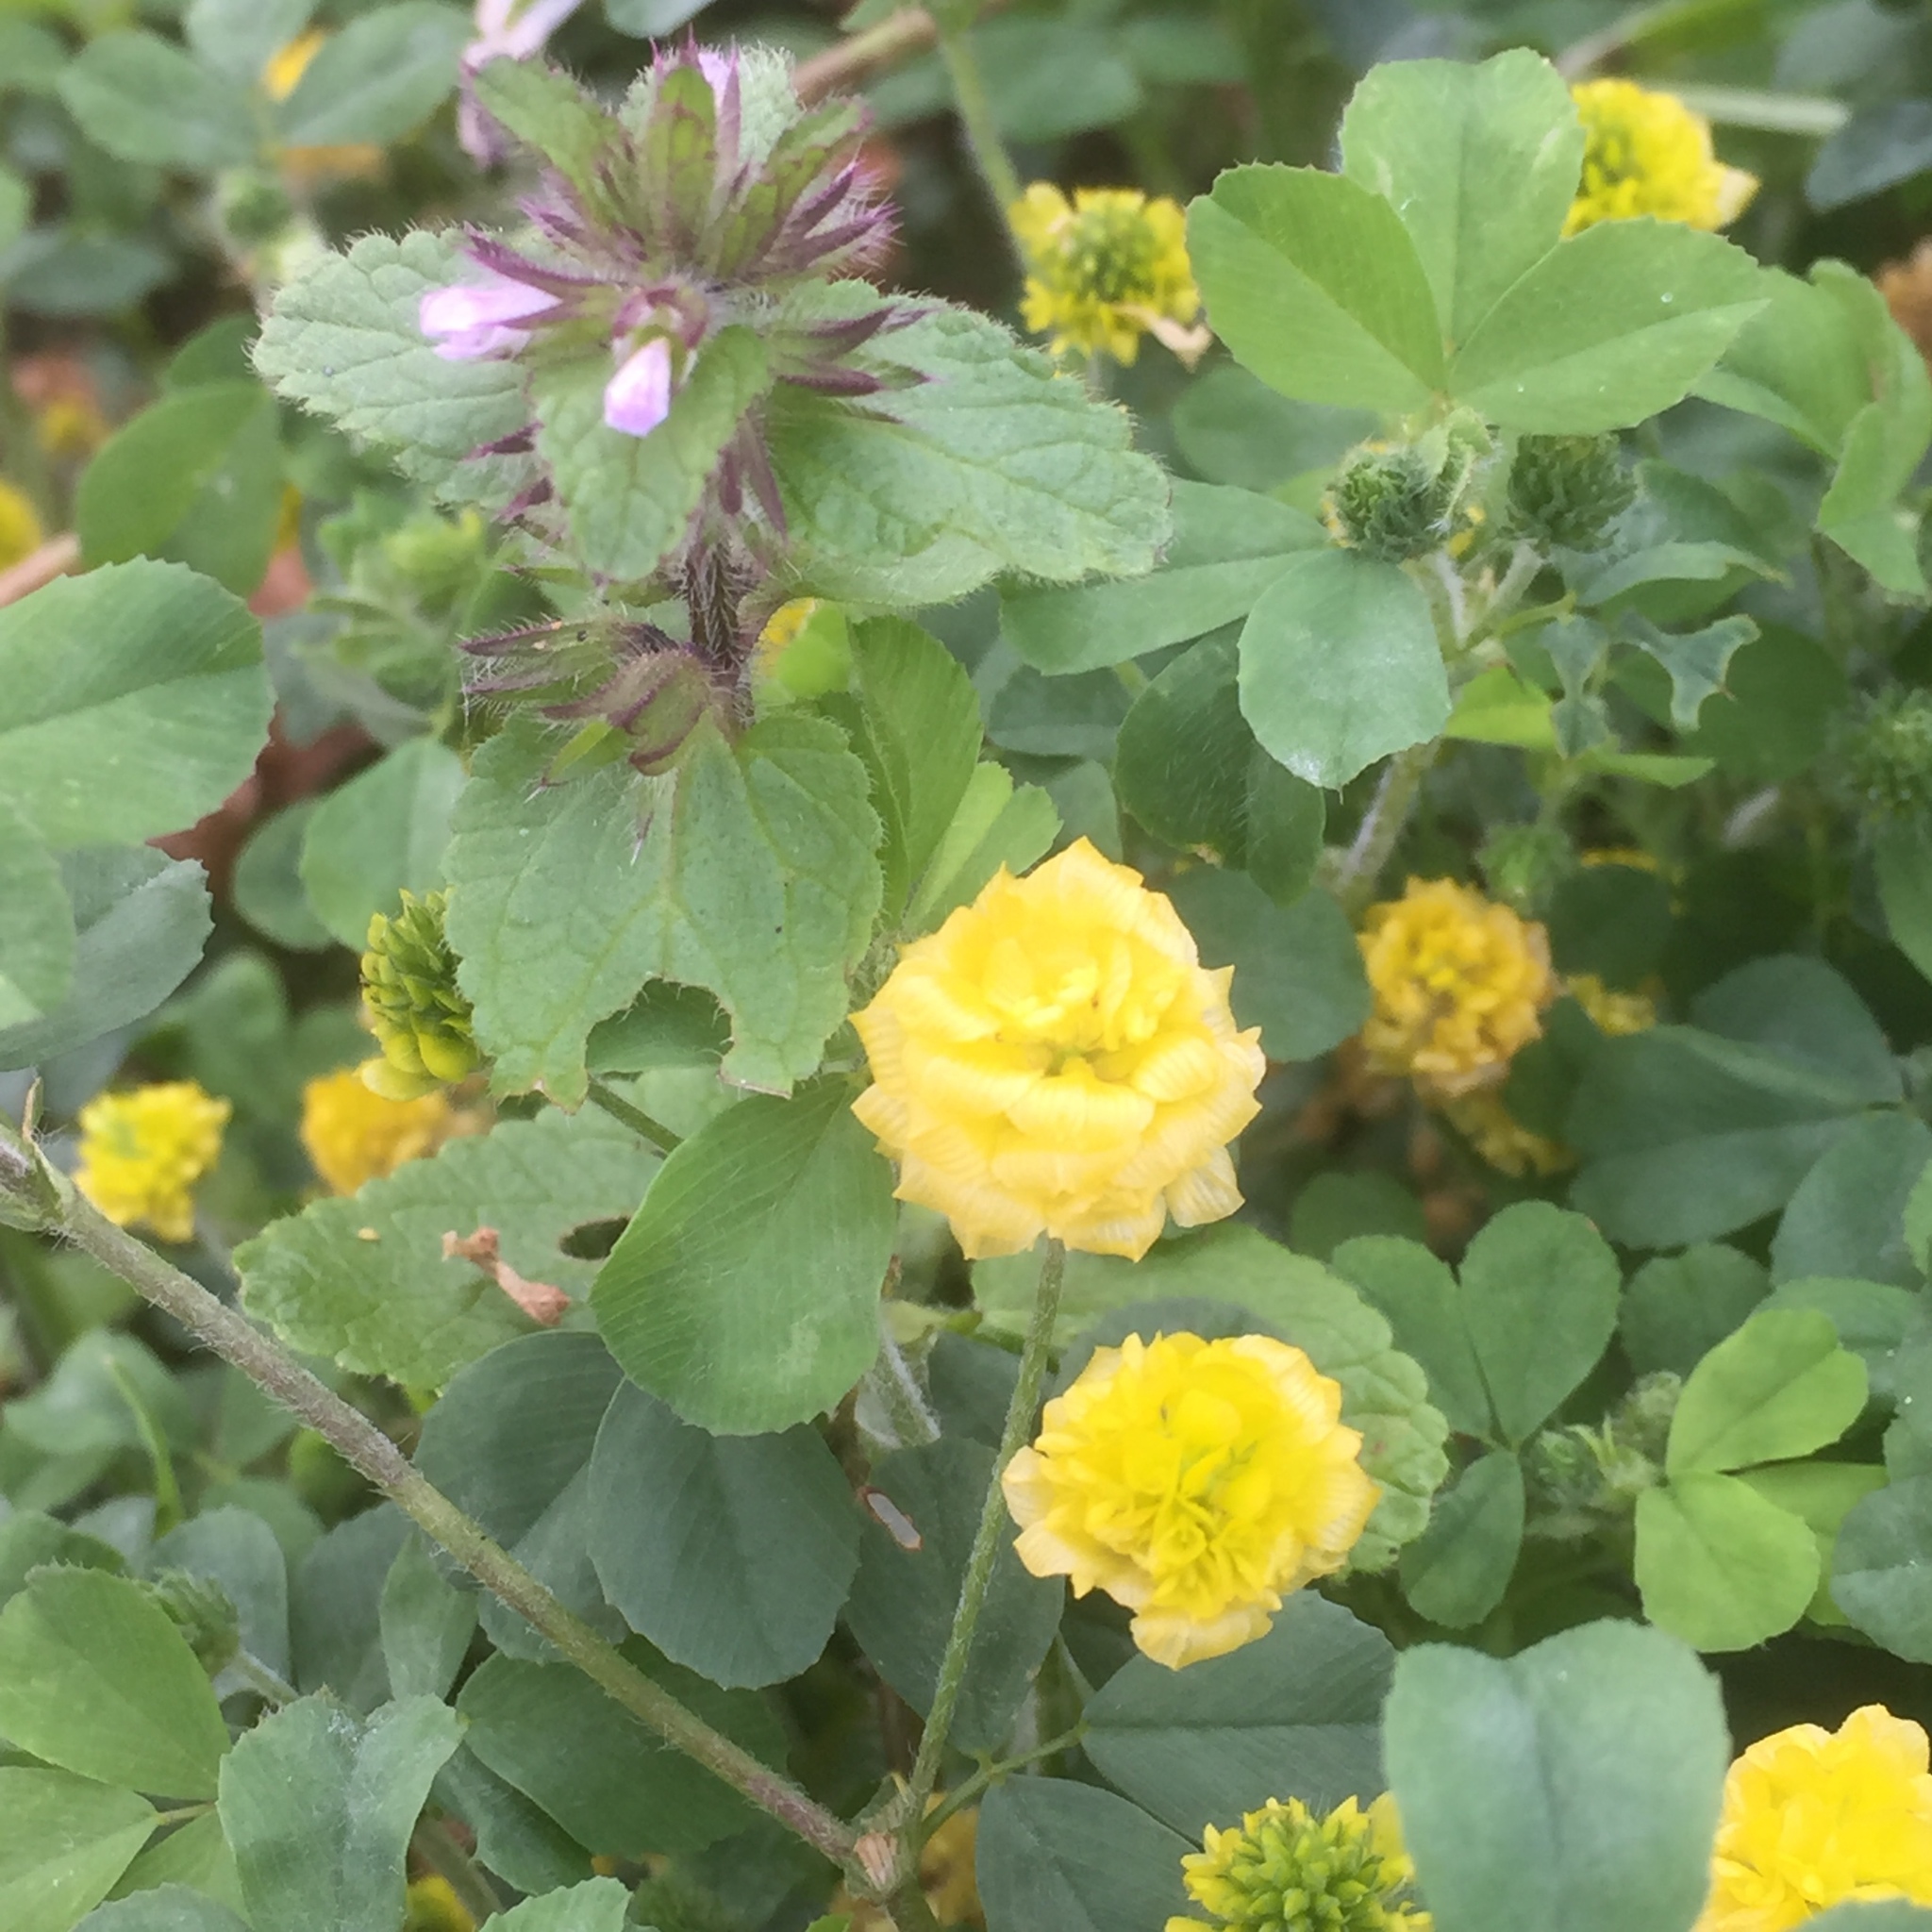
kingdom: Plantae
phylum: Tracheophyta
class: Magnoliopsida
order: Lamiales
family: Lamiaceae
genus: Stachys
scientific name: Stachys arvensis
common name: Field woundwort
